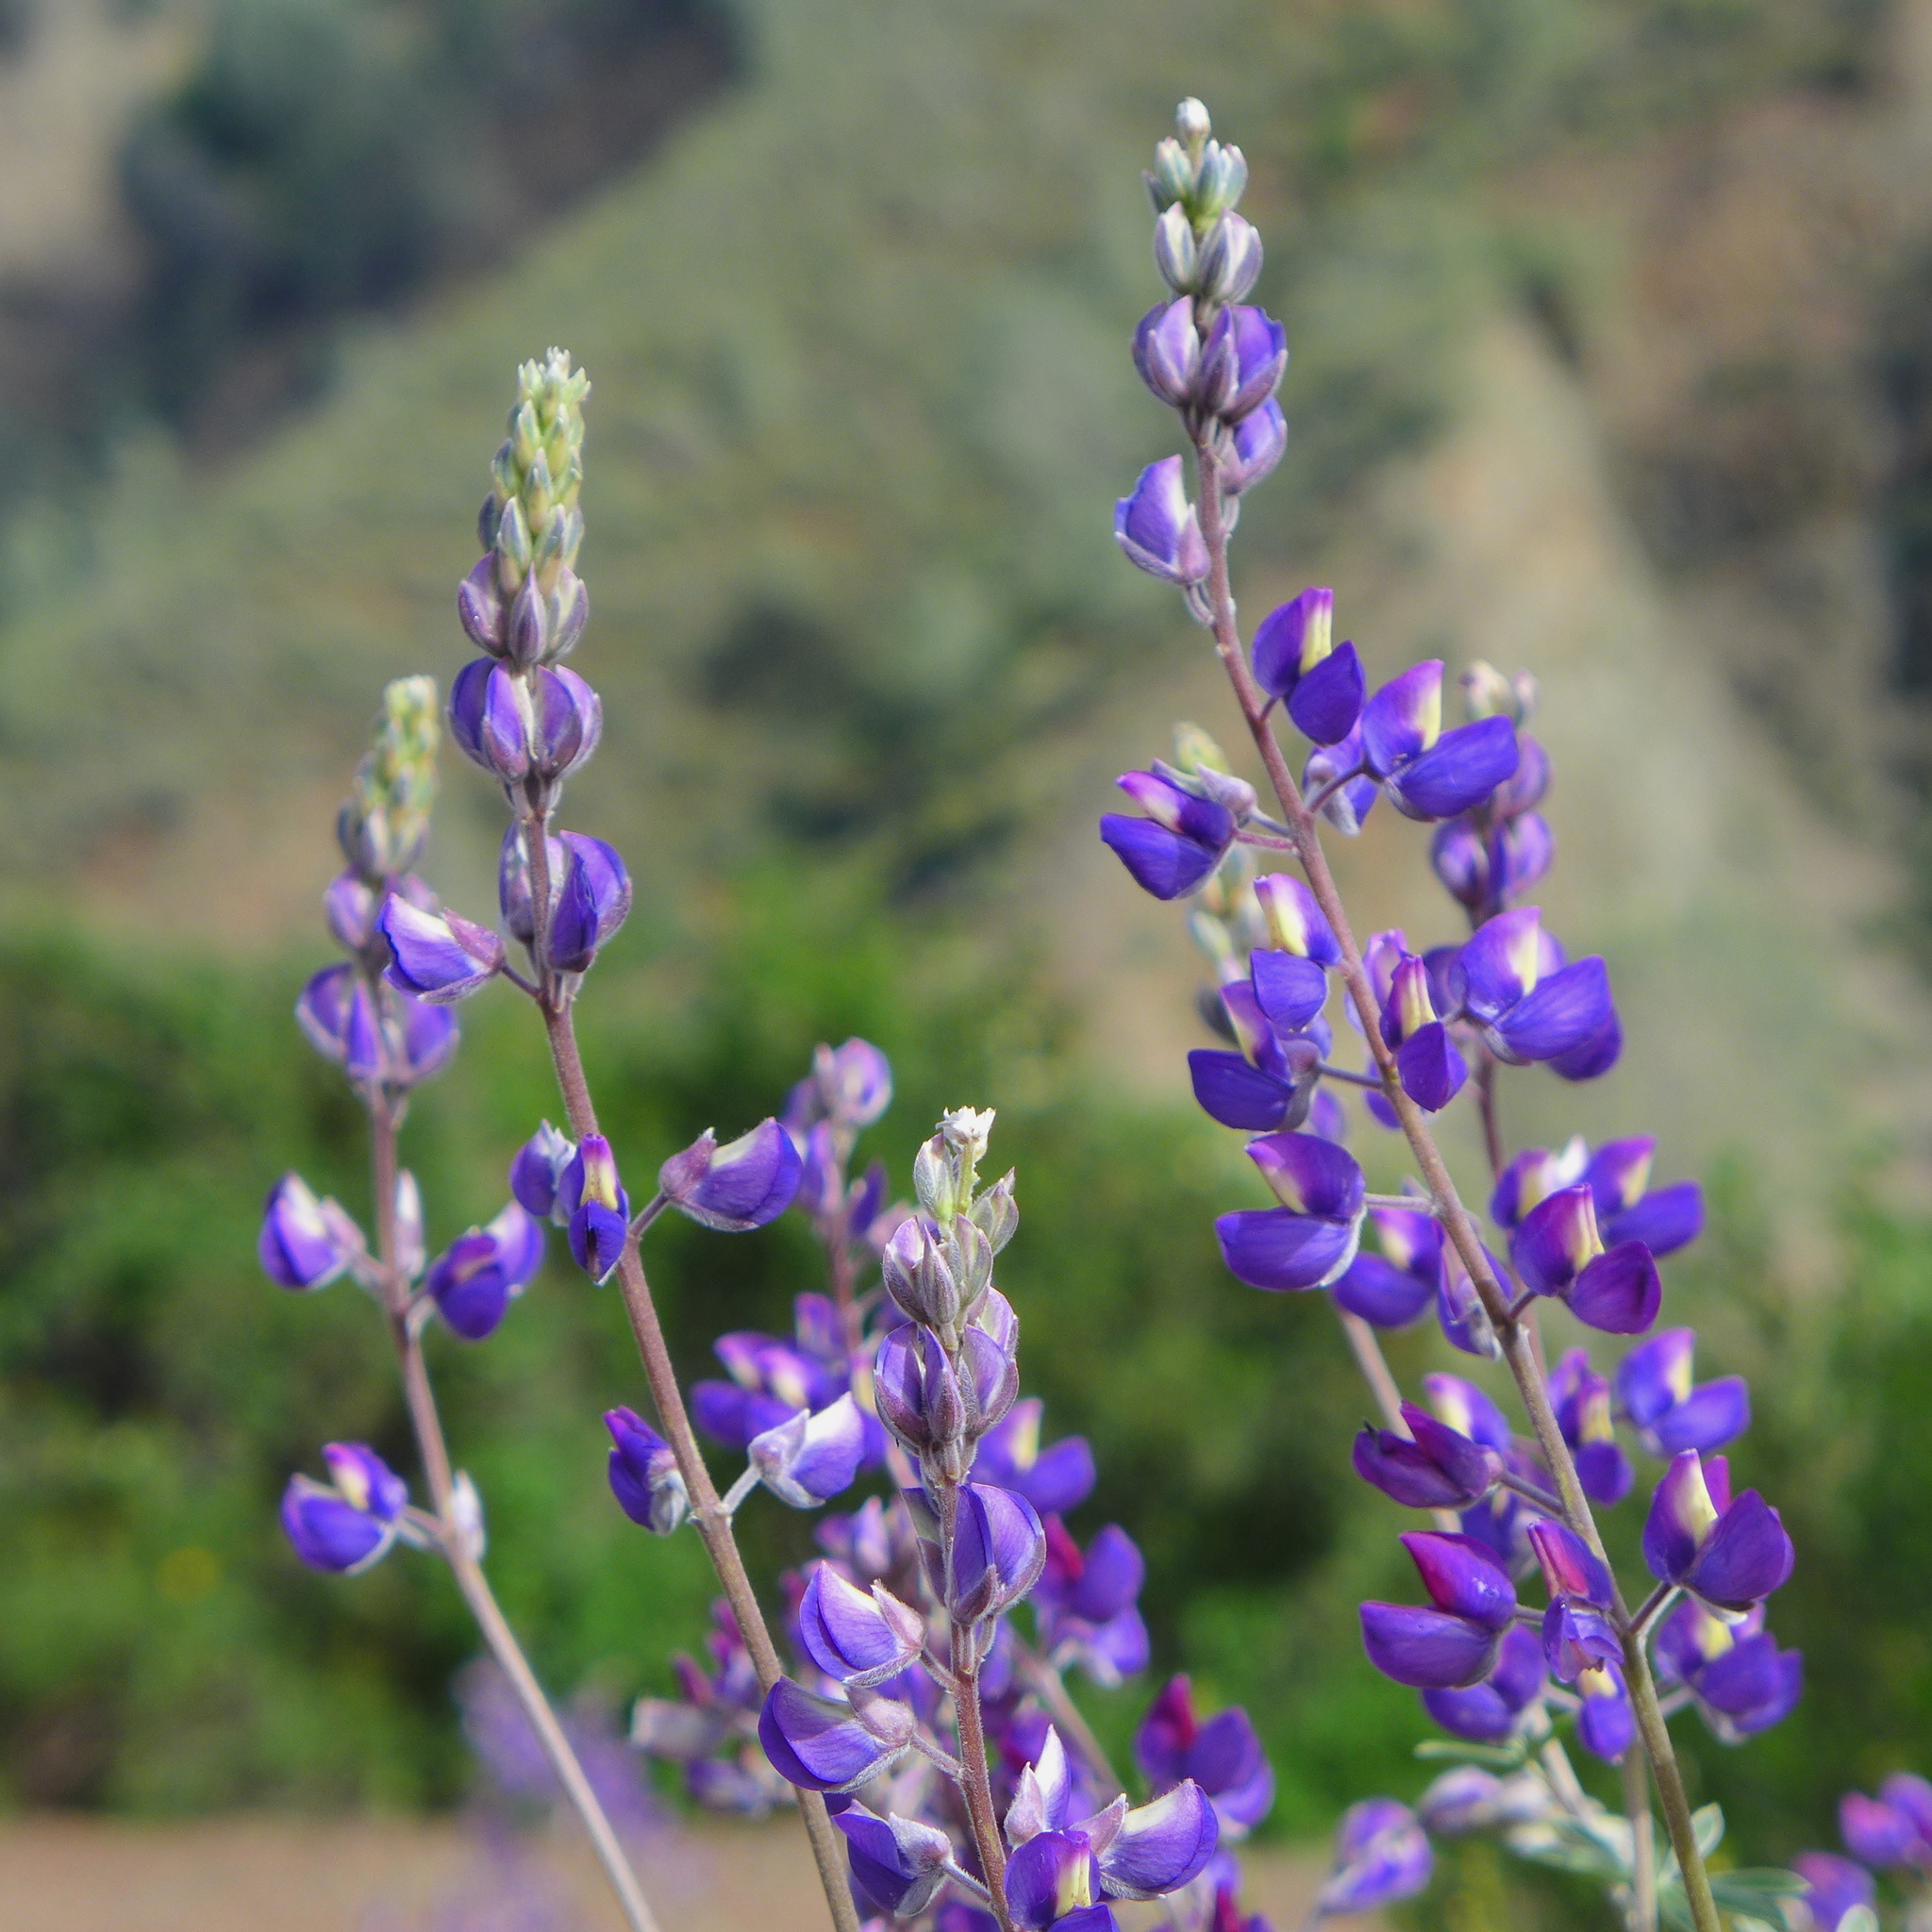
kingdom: Plantae
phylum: Tracheophyta
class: Magnoliopsida
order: Fabales
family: Fabaceae
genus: Lupinus
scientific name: Lupinus albifrons
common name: Foothill lupine
